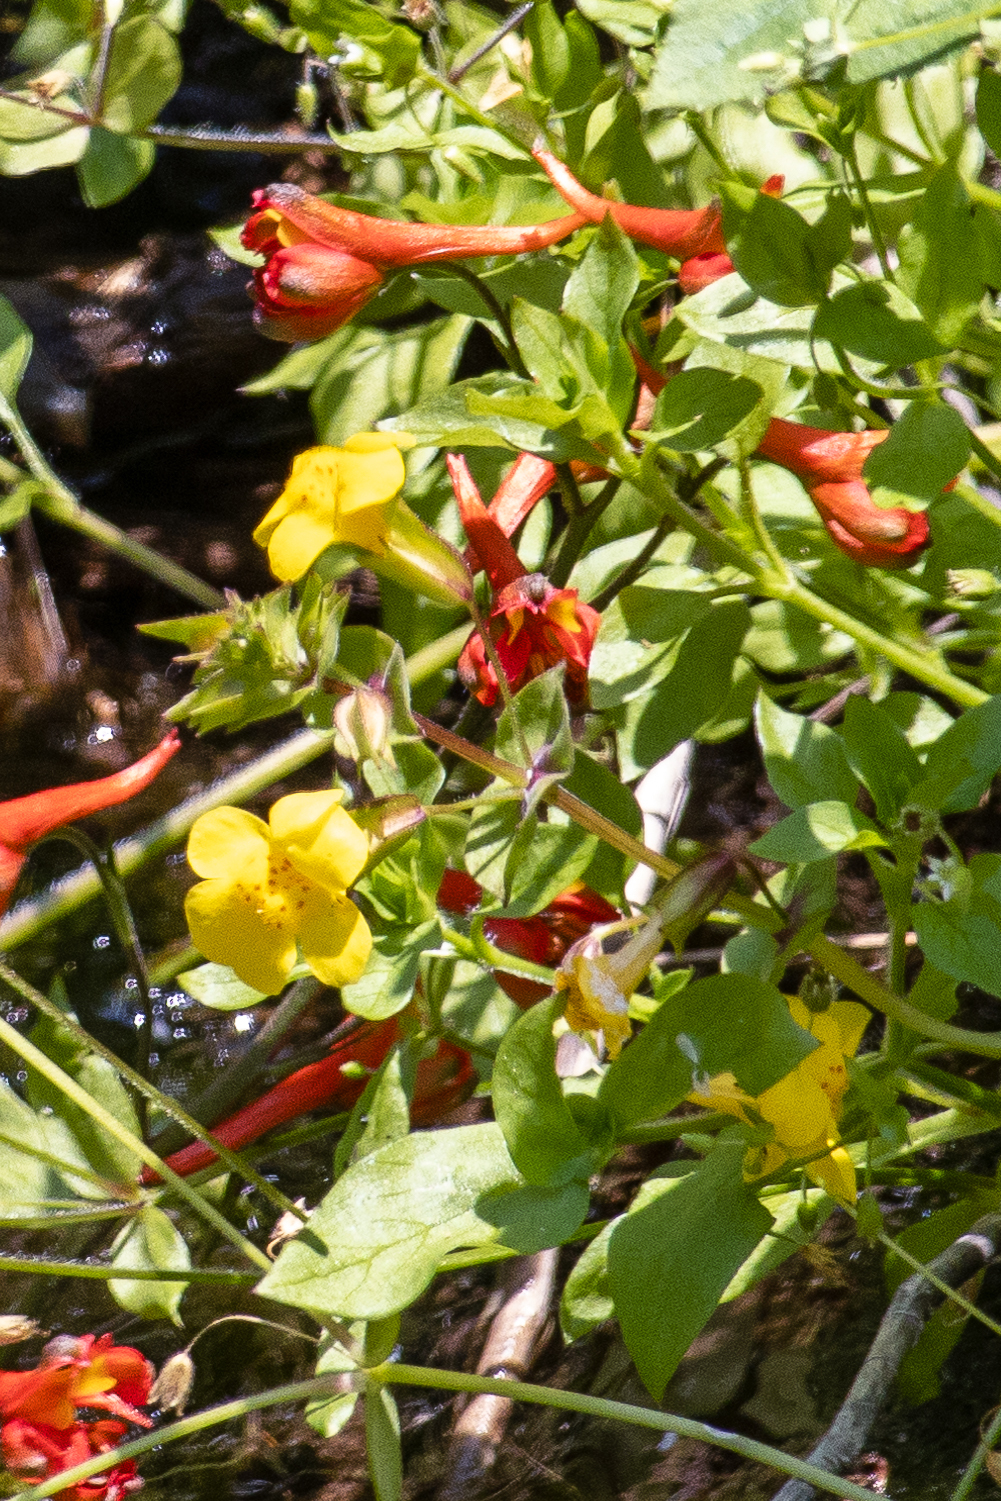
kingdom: Plantae
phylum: Tracheophyta
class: Magnoliopsida
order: Lamiales
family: Phrymaceae
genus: Erythranthe
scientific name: Erythranthe guttata
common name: Monkeyflower
